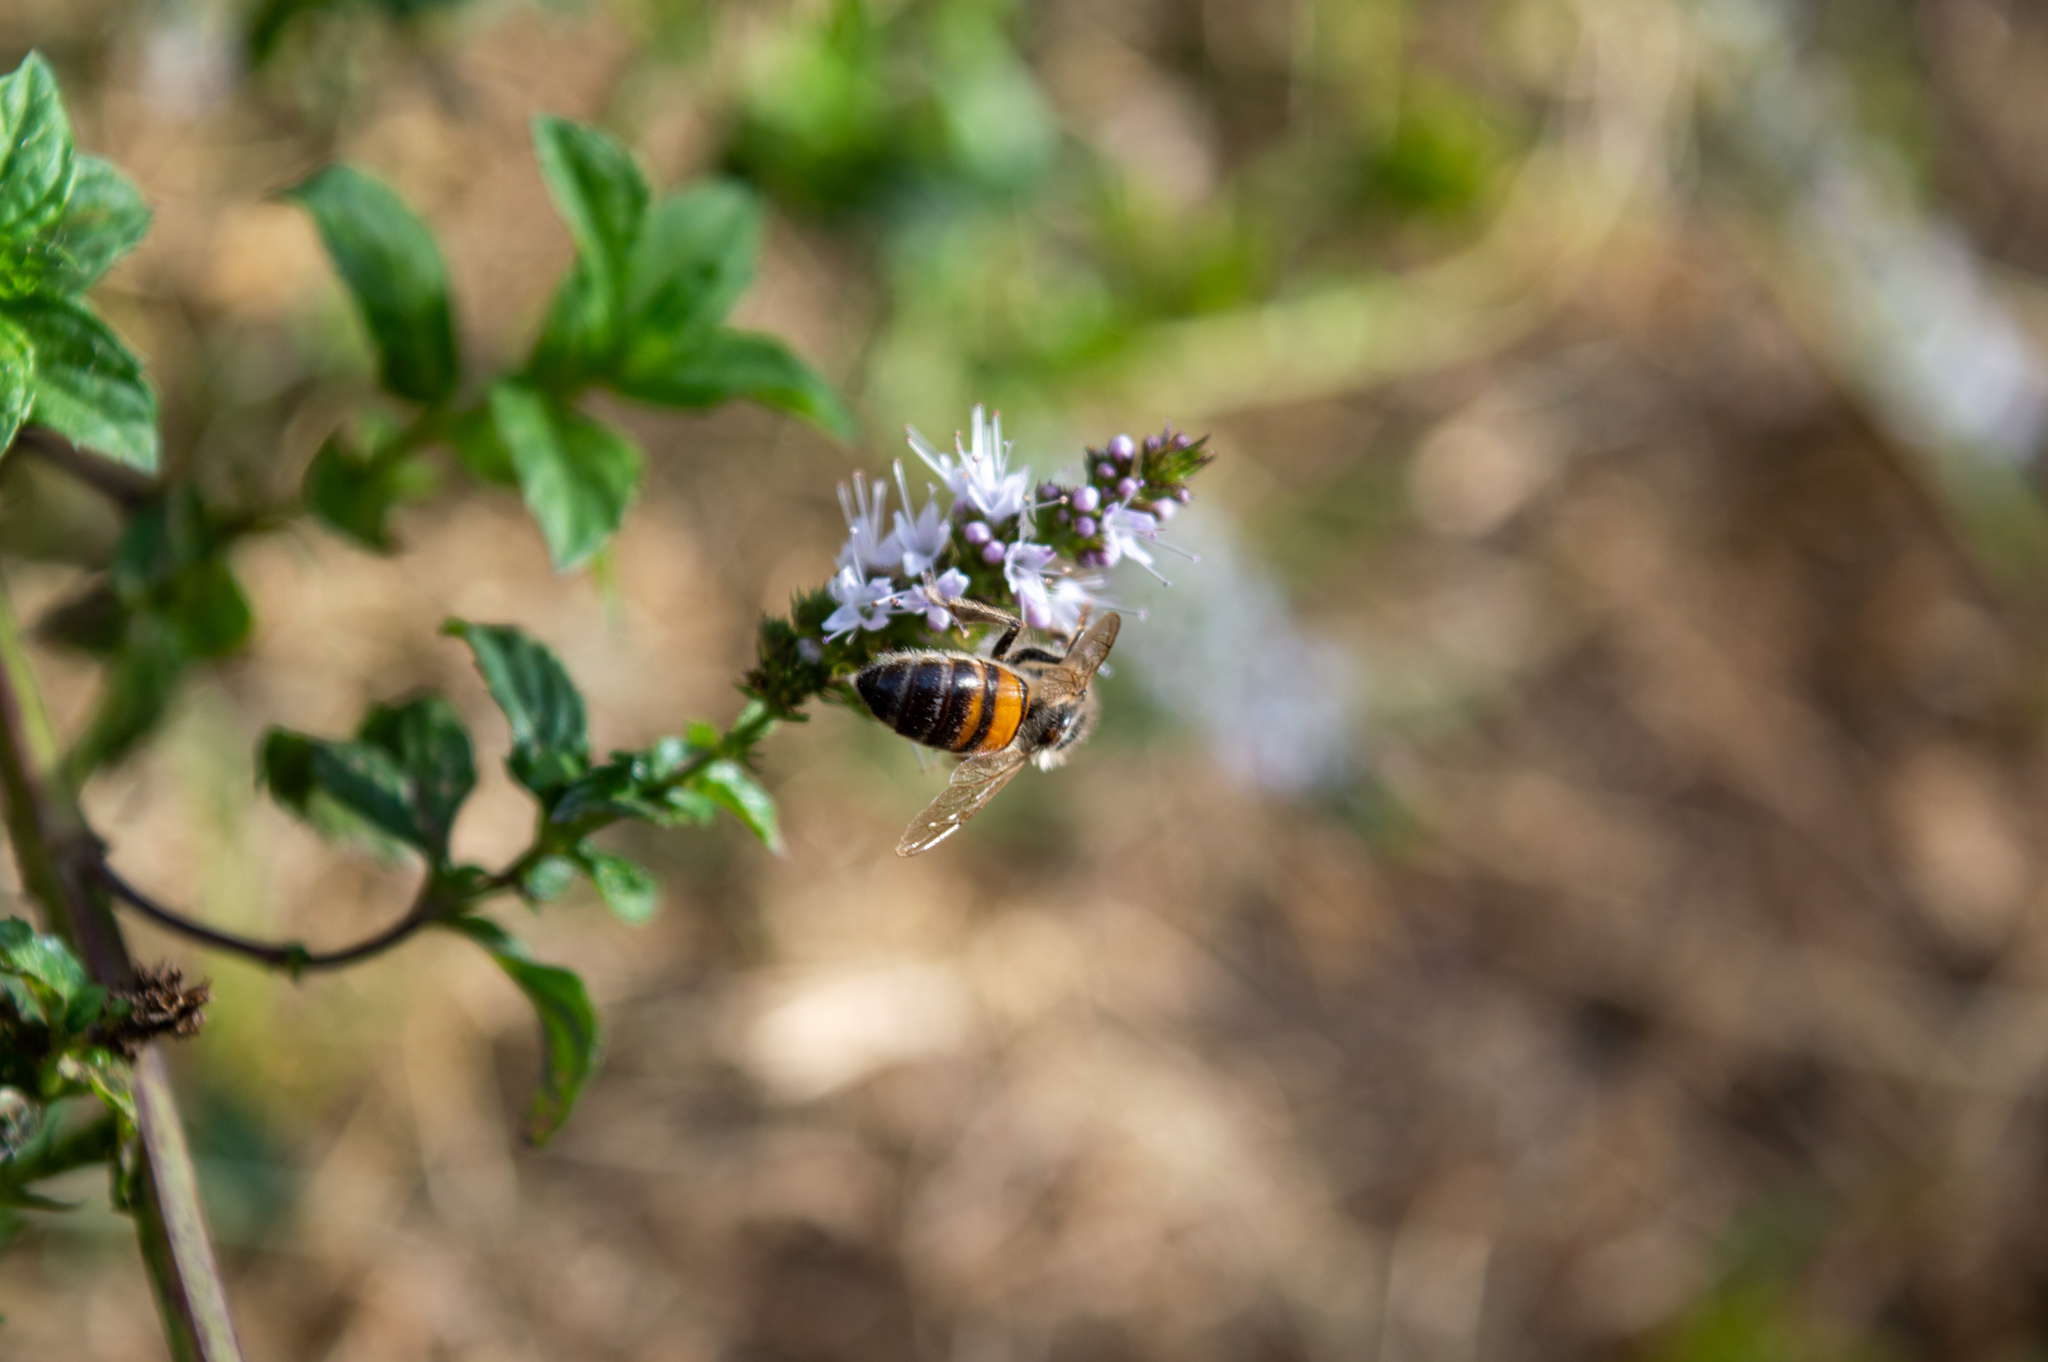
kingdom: Animalia
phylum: Arthropoda
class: Insecta
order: Hymenoptera
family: Apidae
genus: Apis
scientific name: Apis mellifera
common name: Honey bee
